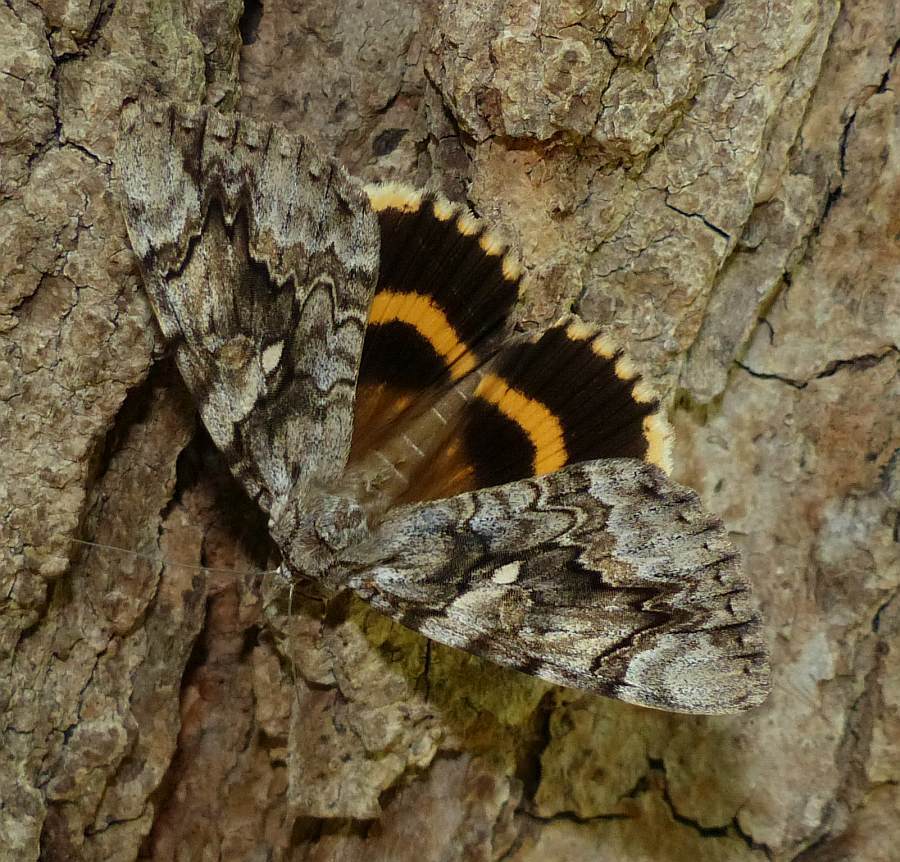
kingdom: Animalia
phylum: Arthropoda
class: Insecta
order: Lepidoptera
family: Erebidae
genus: Catocala
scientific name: Catocala cerogama
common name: Yellow banded underwing
